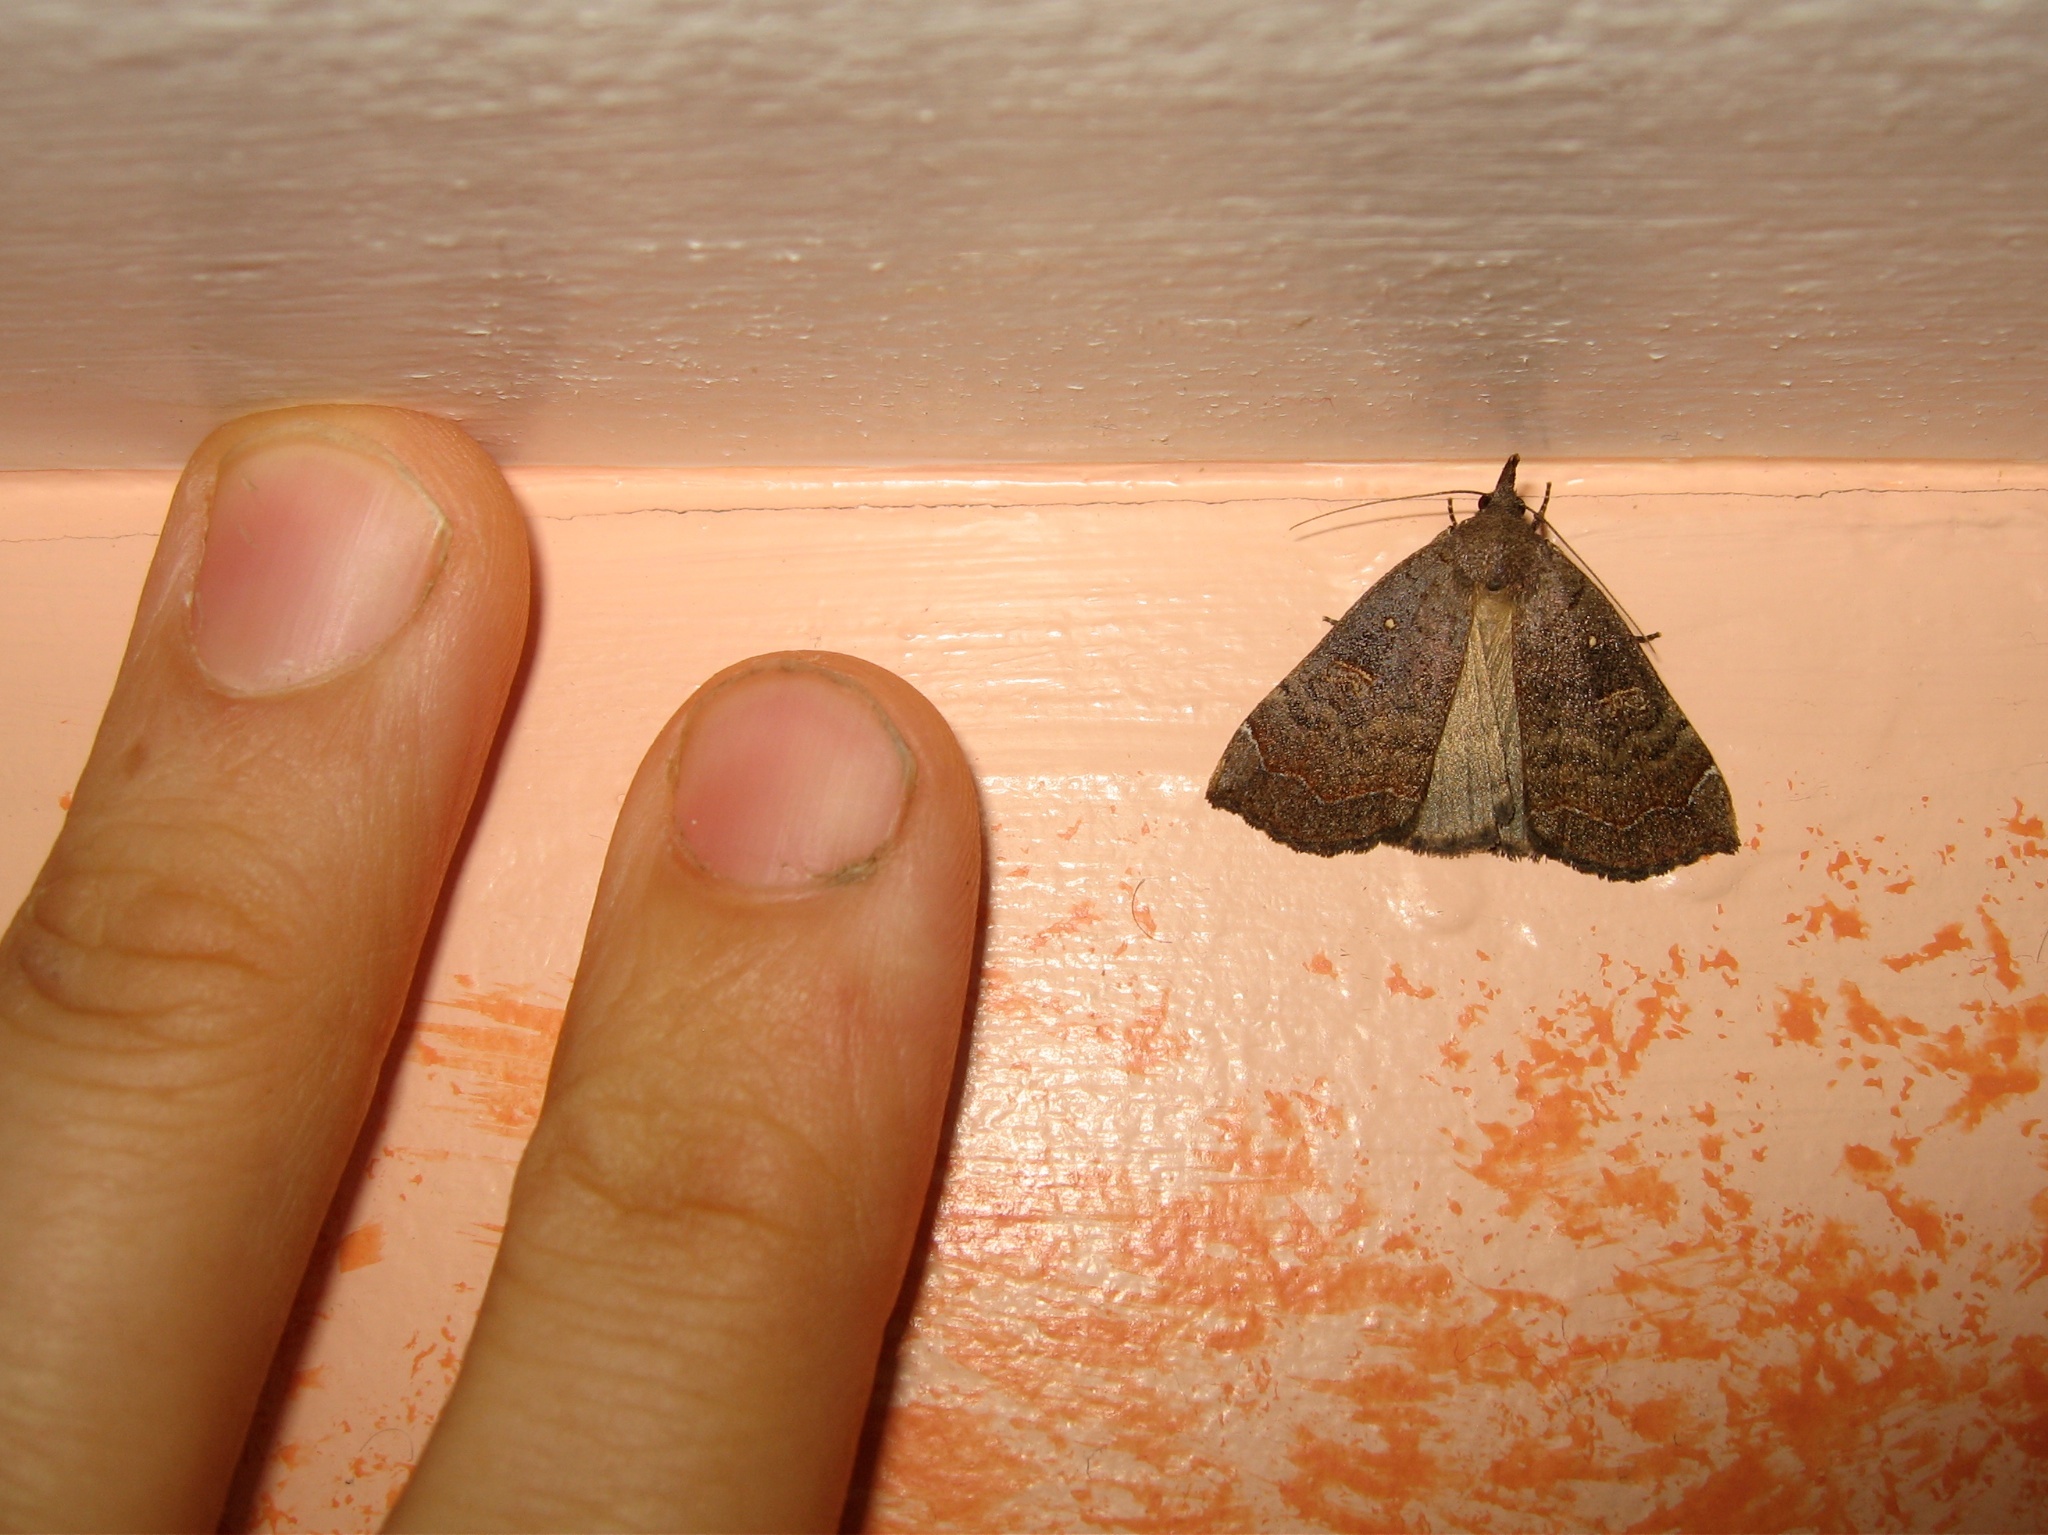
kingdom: Animalia
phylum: Arthropoda
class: Insecta
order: Lepidoptera
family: Erebidae
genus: Rhapsa
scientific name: Rhapsa scotosialis
